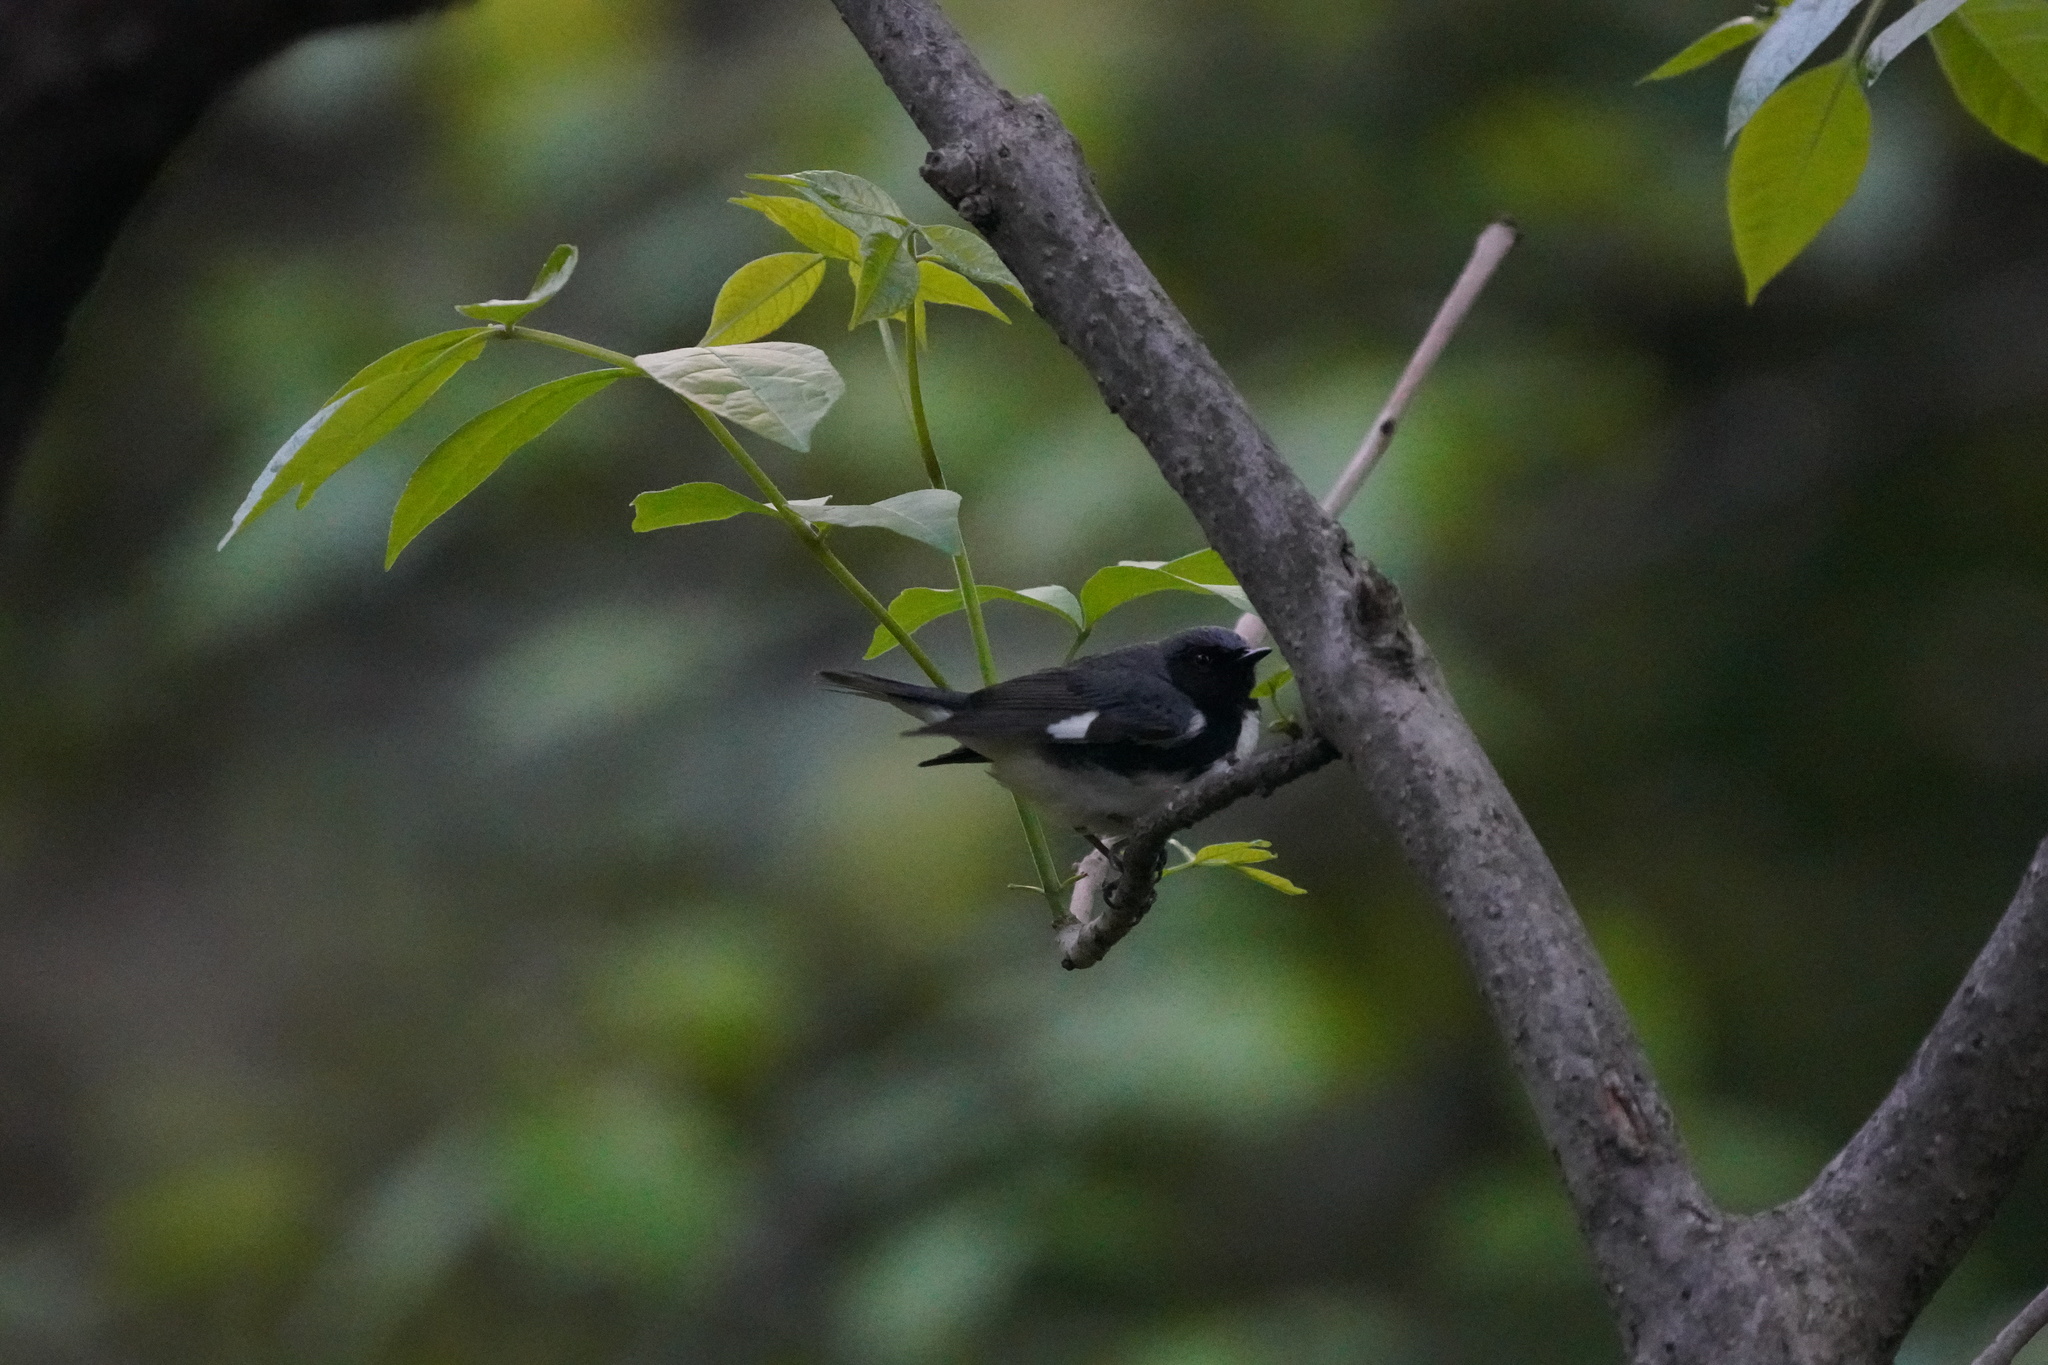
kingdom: Animalia
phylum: Chordata
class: Aves
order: Passeriformes
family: Parulidae
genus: Setophaga
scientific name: Setophaga caerulescens
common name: Black-throated blue warbler
